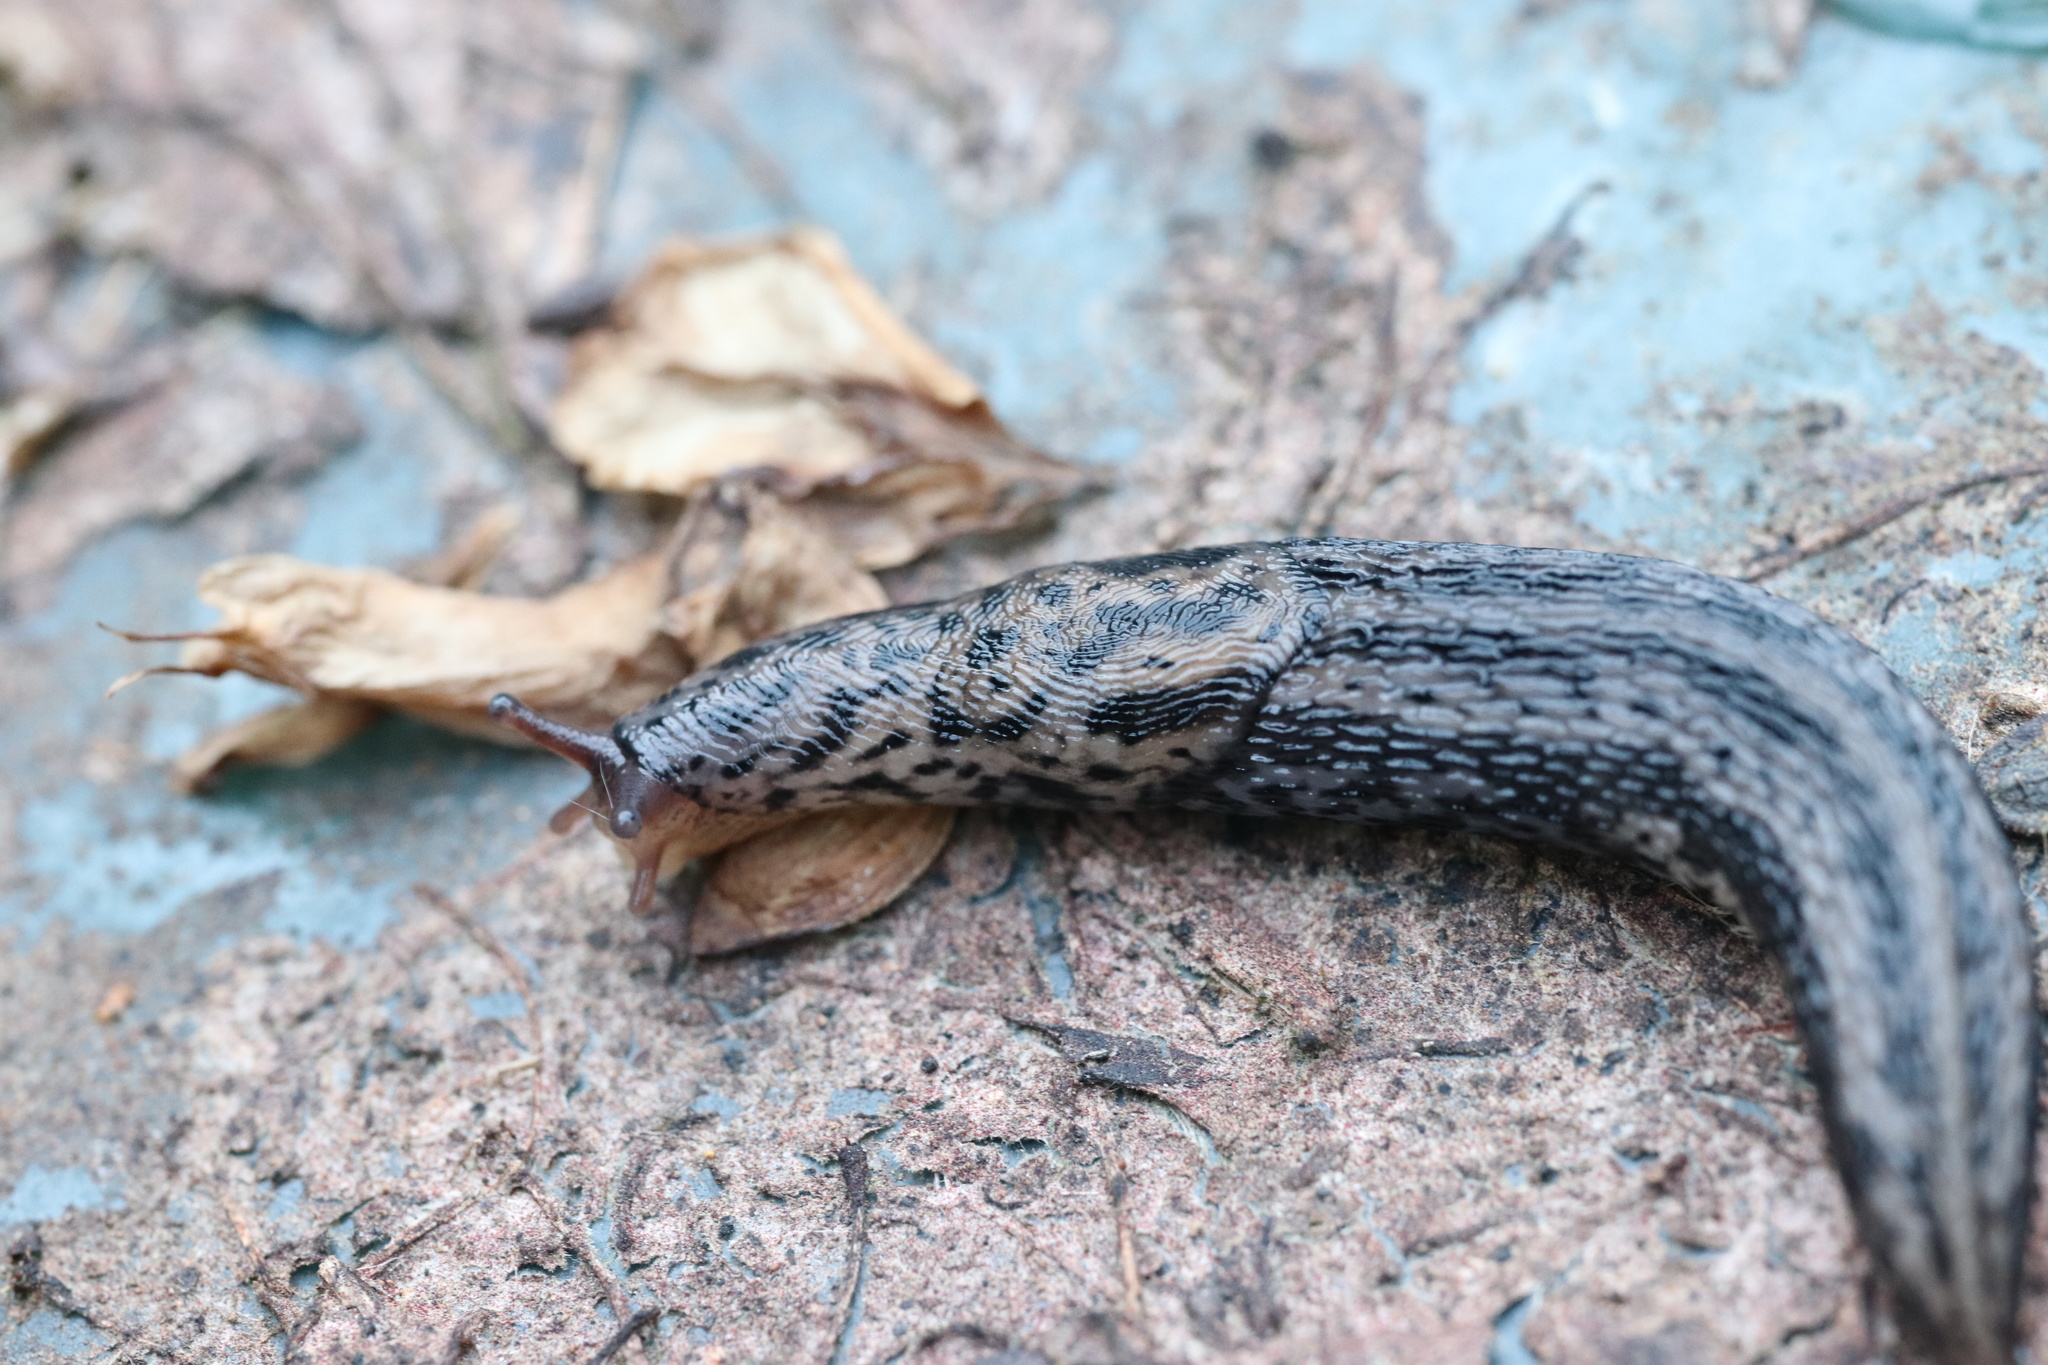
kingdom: Animalia
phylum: Mollusca
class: Gastropoda
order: Stylommatophora
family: Limacidae
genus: Limax
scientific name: Limax maximus
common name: Great grey slug
